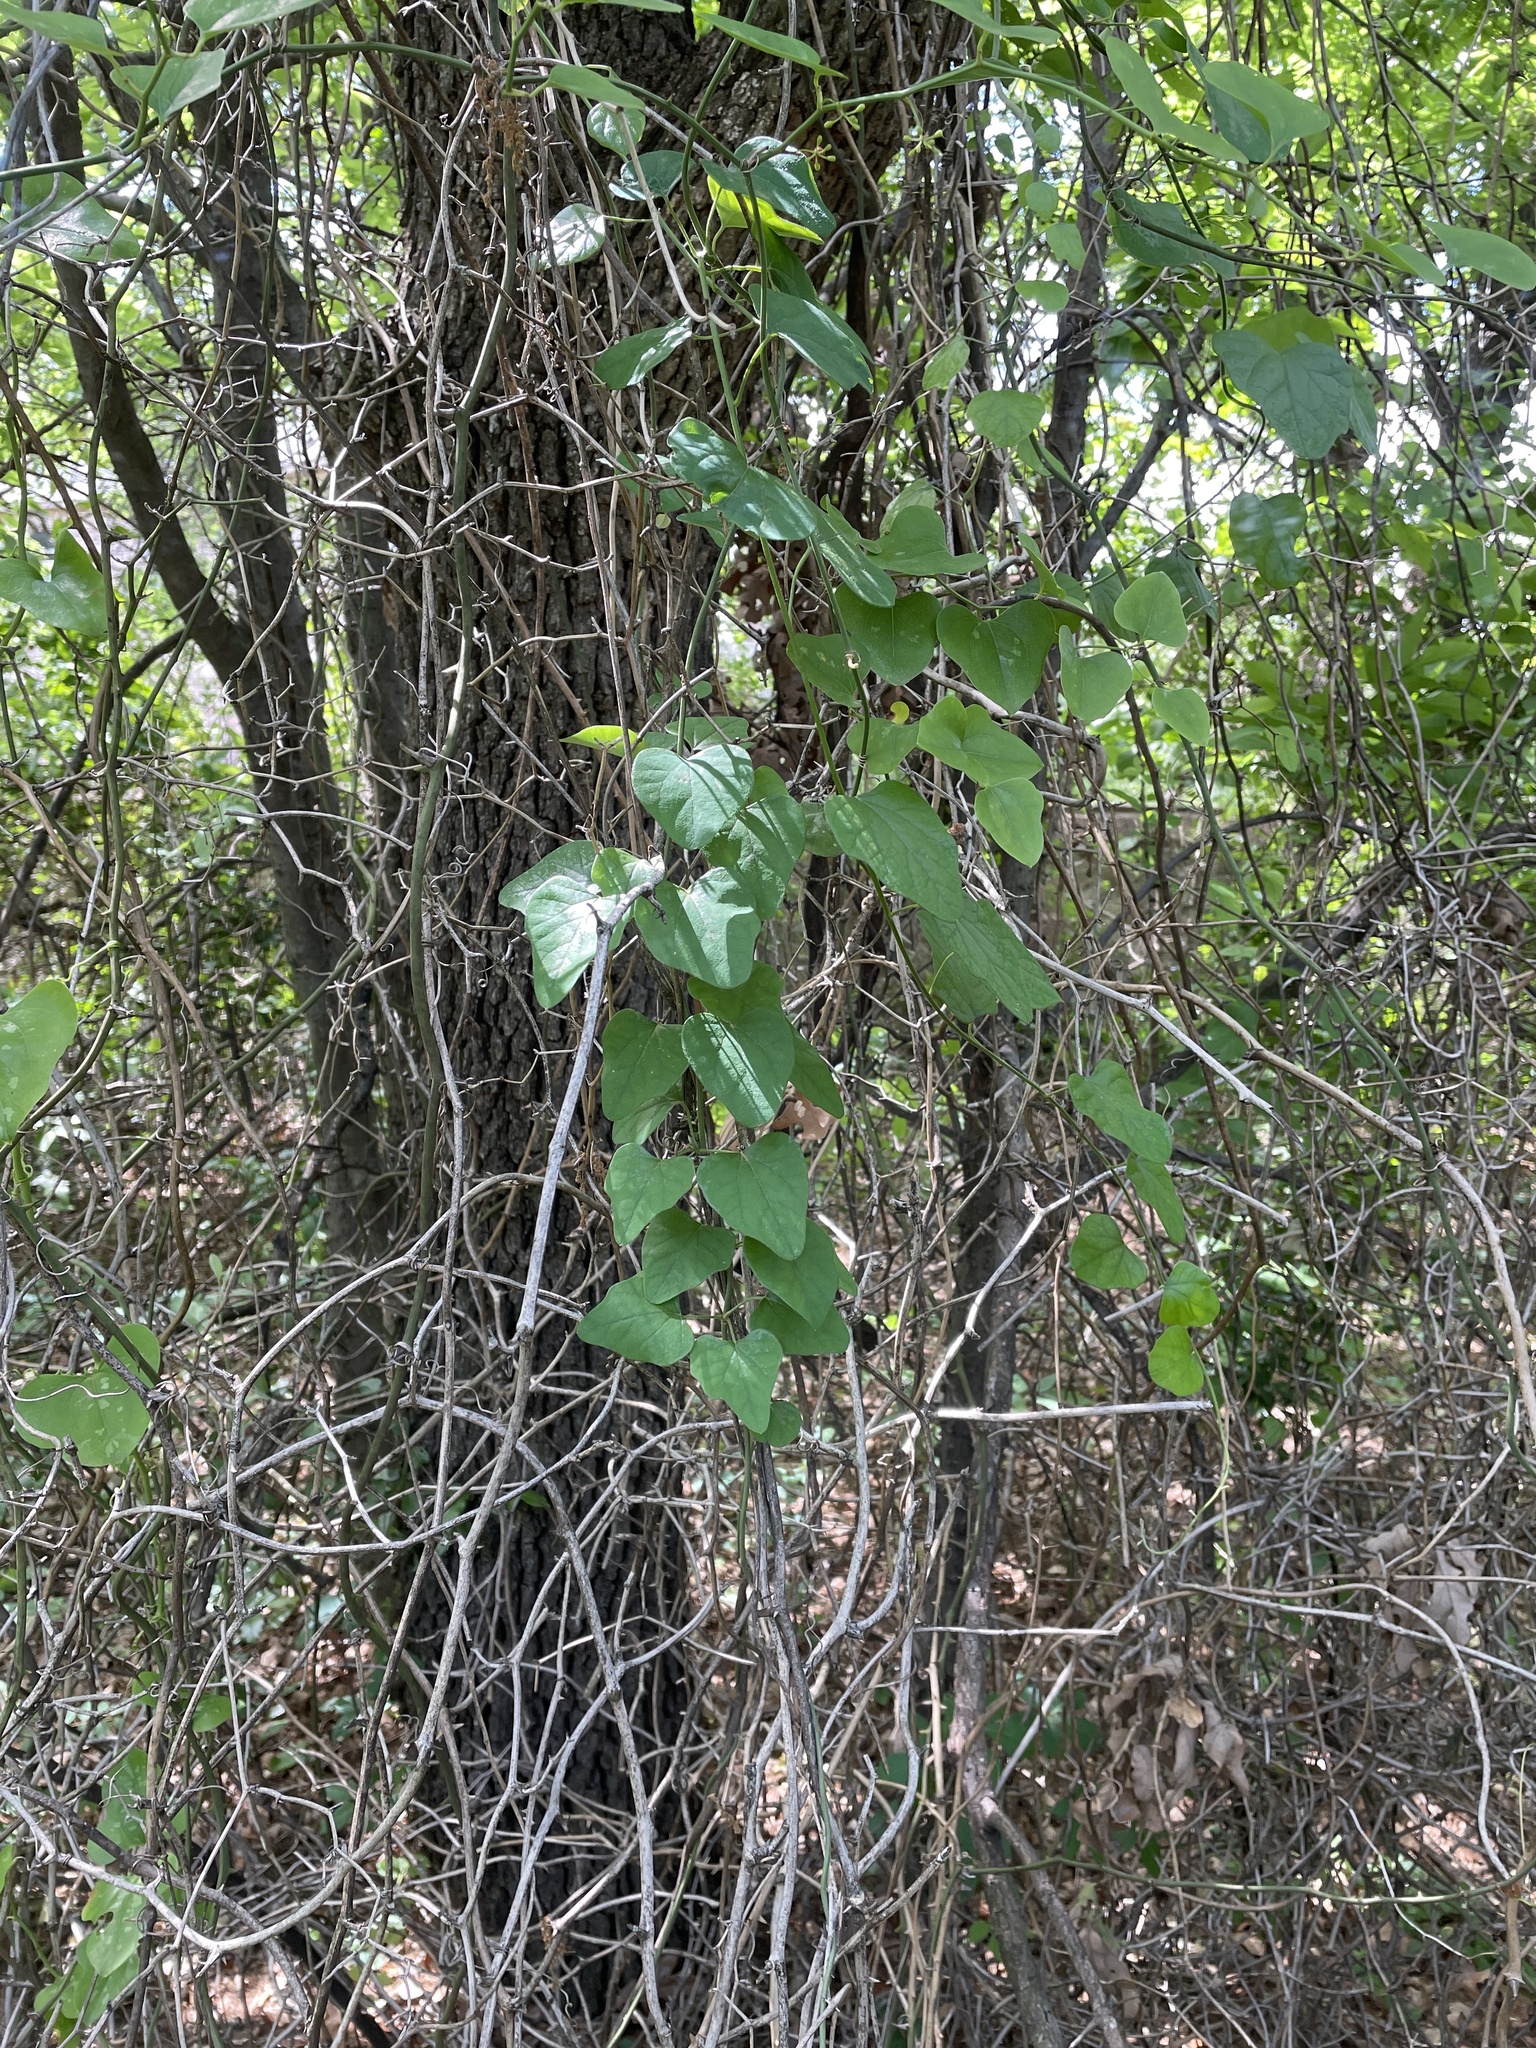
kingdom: Plantae
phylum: Tracheophyta
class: Magnoliopsida
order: Ranunculales
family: Menispermaceae
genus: Cocculus
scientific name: Cocculus carolinus
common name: Carolina moonseed
